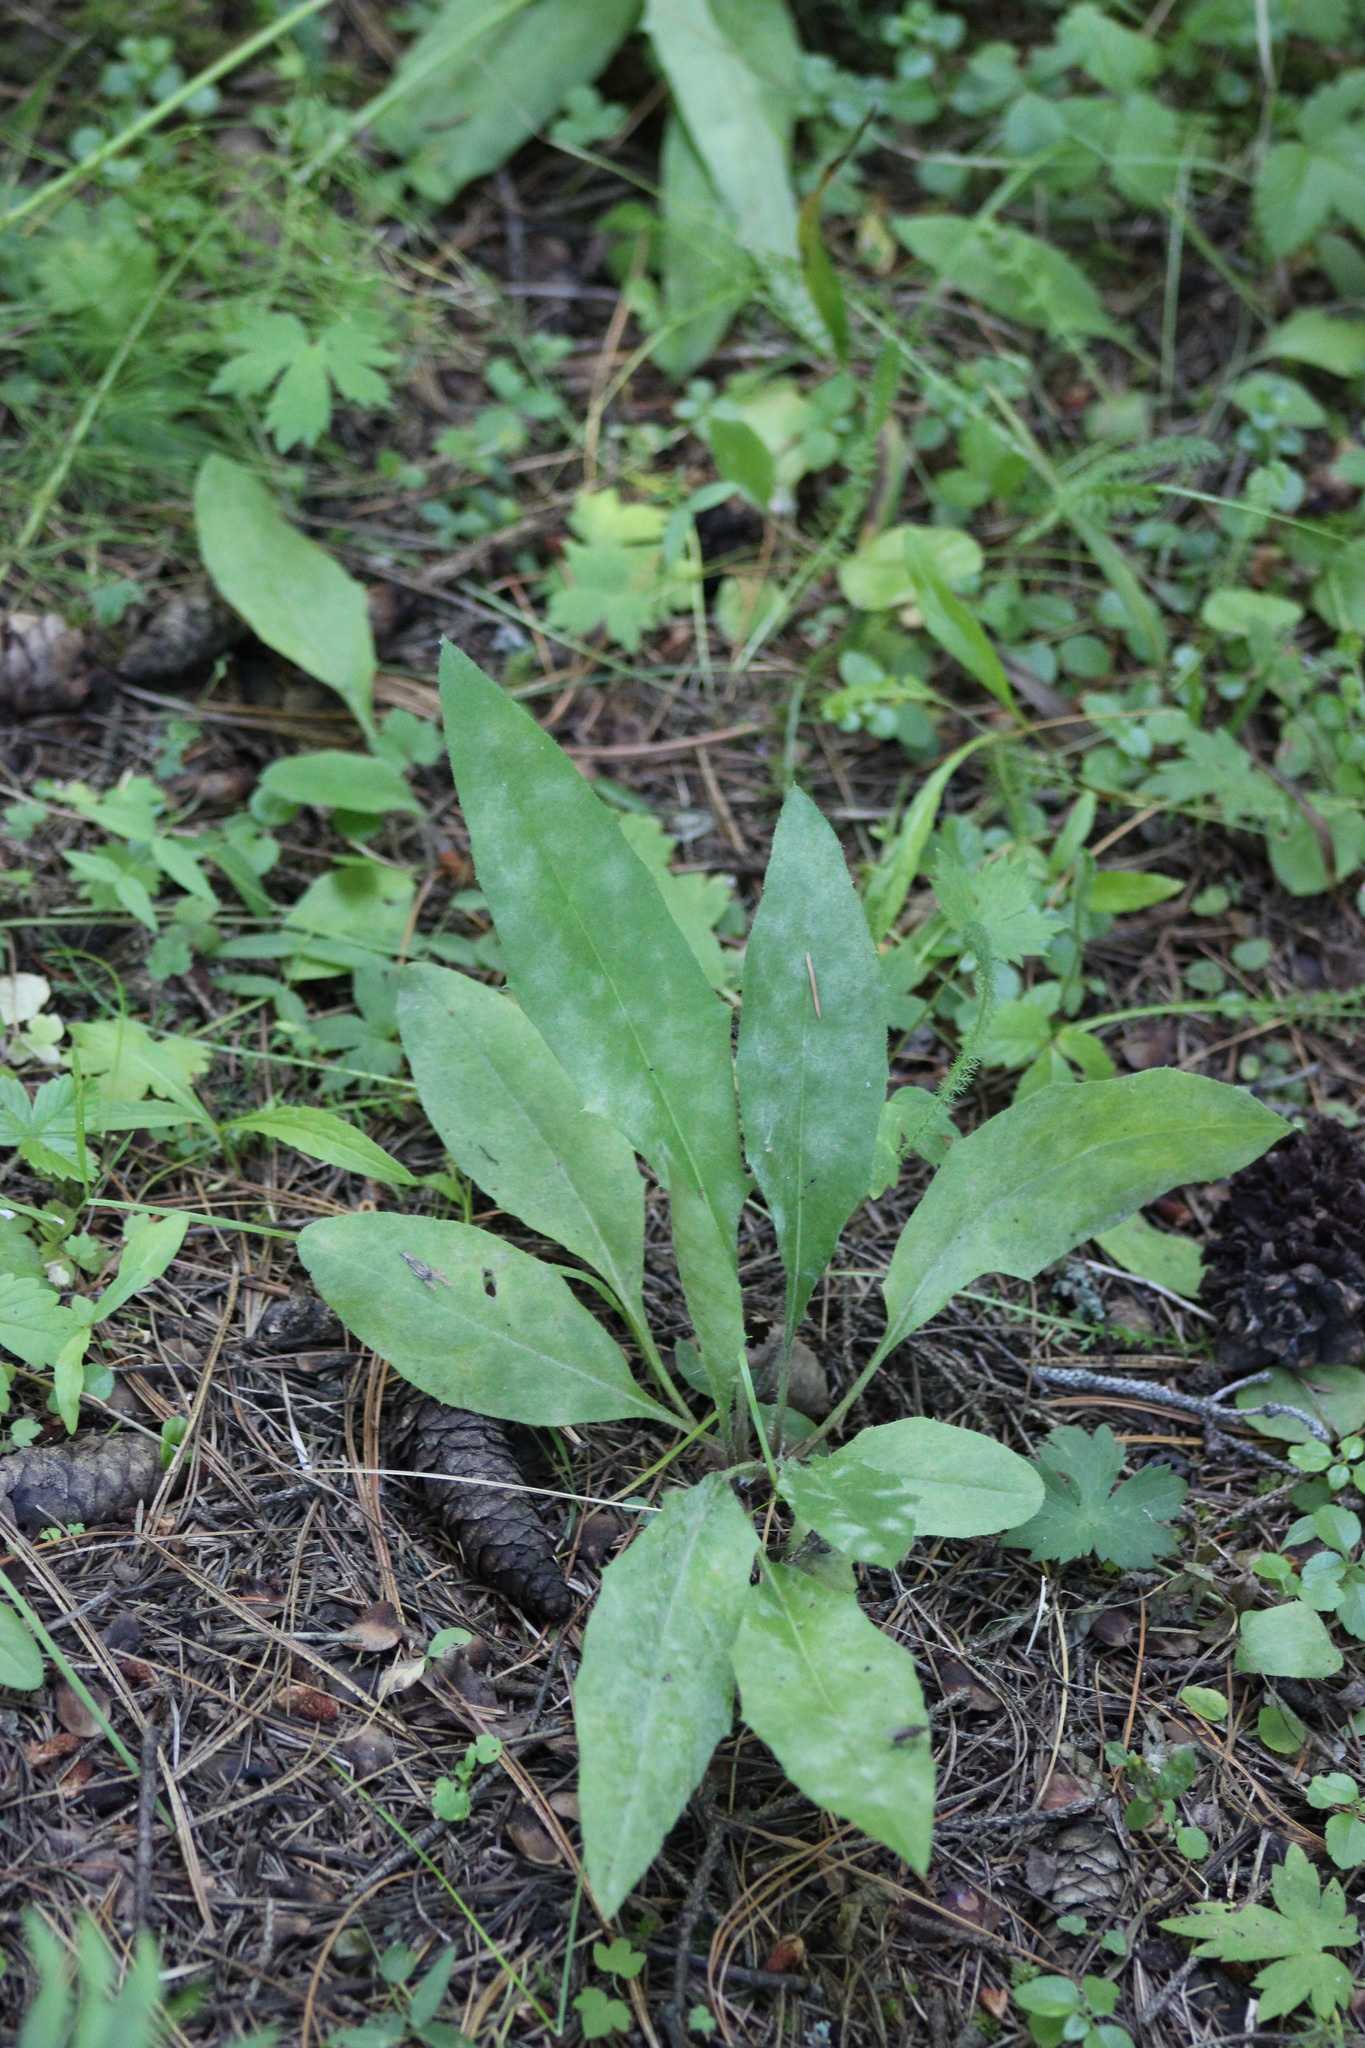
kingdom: Plantae
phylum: Tracheophyta
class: Magnoliopsida
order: Asterales
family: Asteraceae
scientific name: Asteraceae
